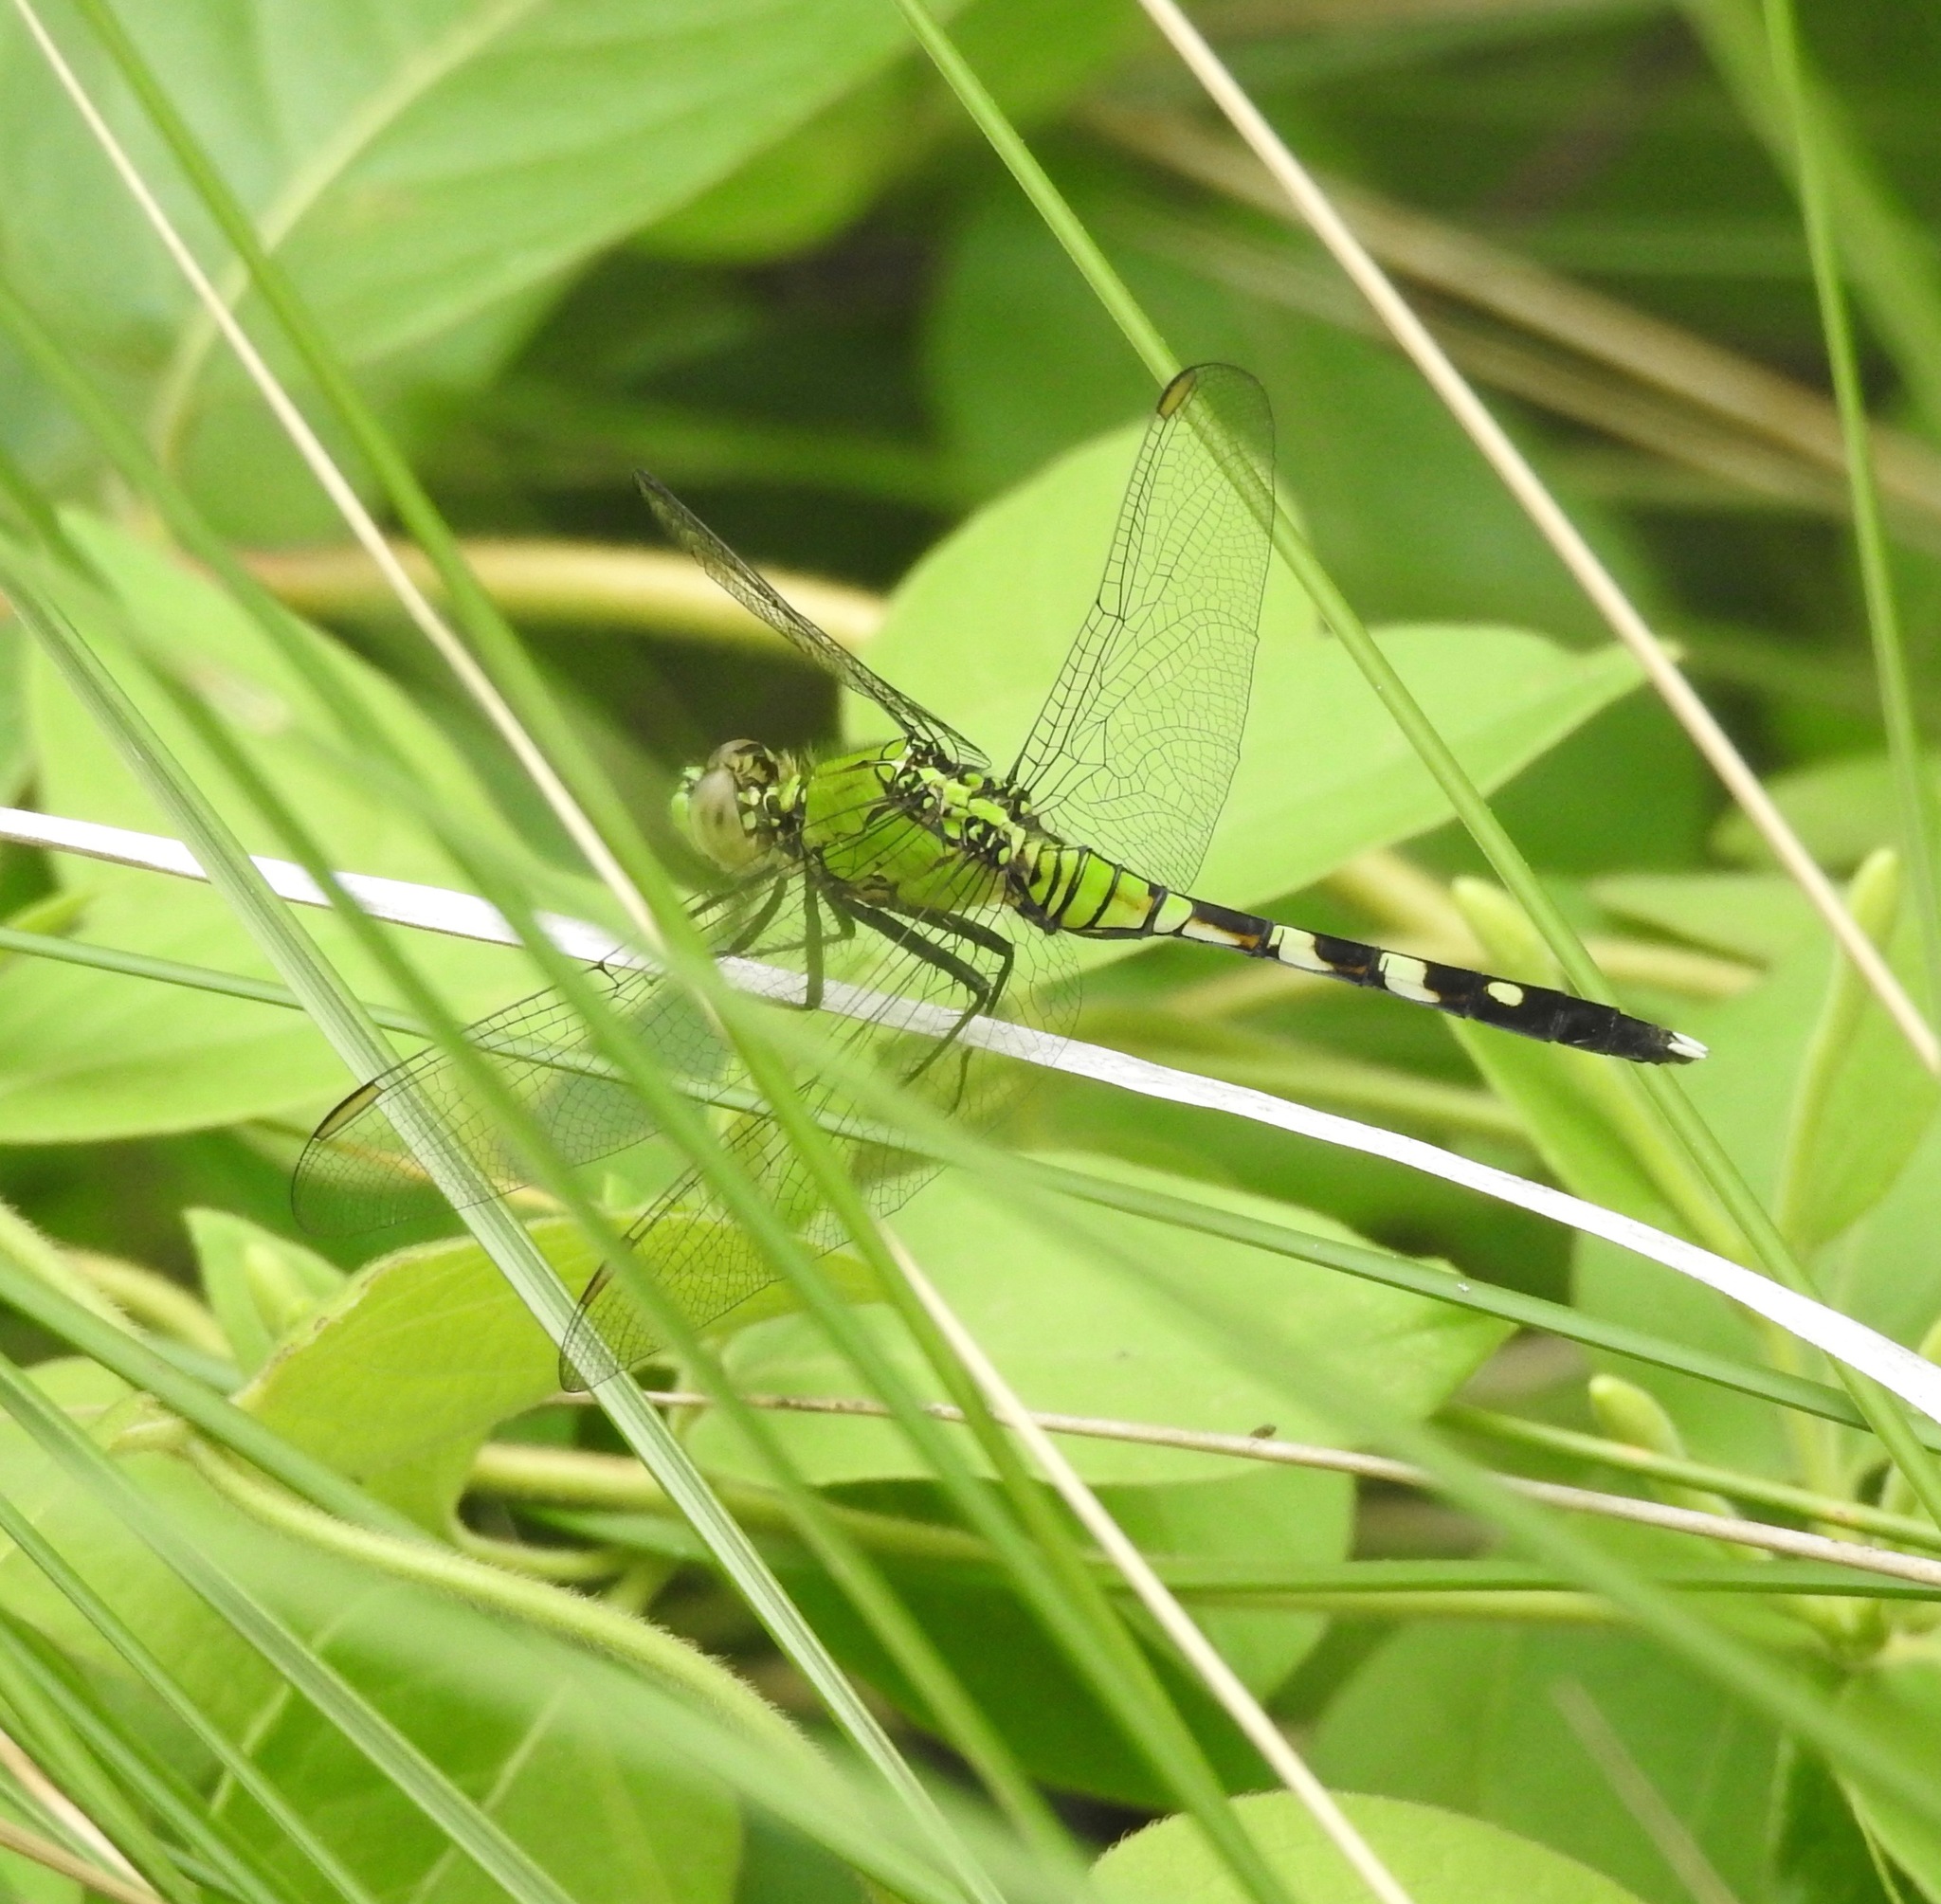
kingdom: Animalia
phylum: Arthropoda
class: Insecta
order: Odonata
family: Libellulidae
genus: Erythemis
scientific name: Erythemis simplicicollis
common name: Eastern pondhawk
